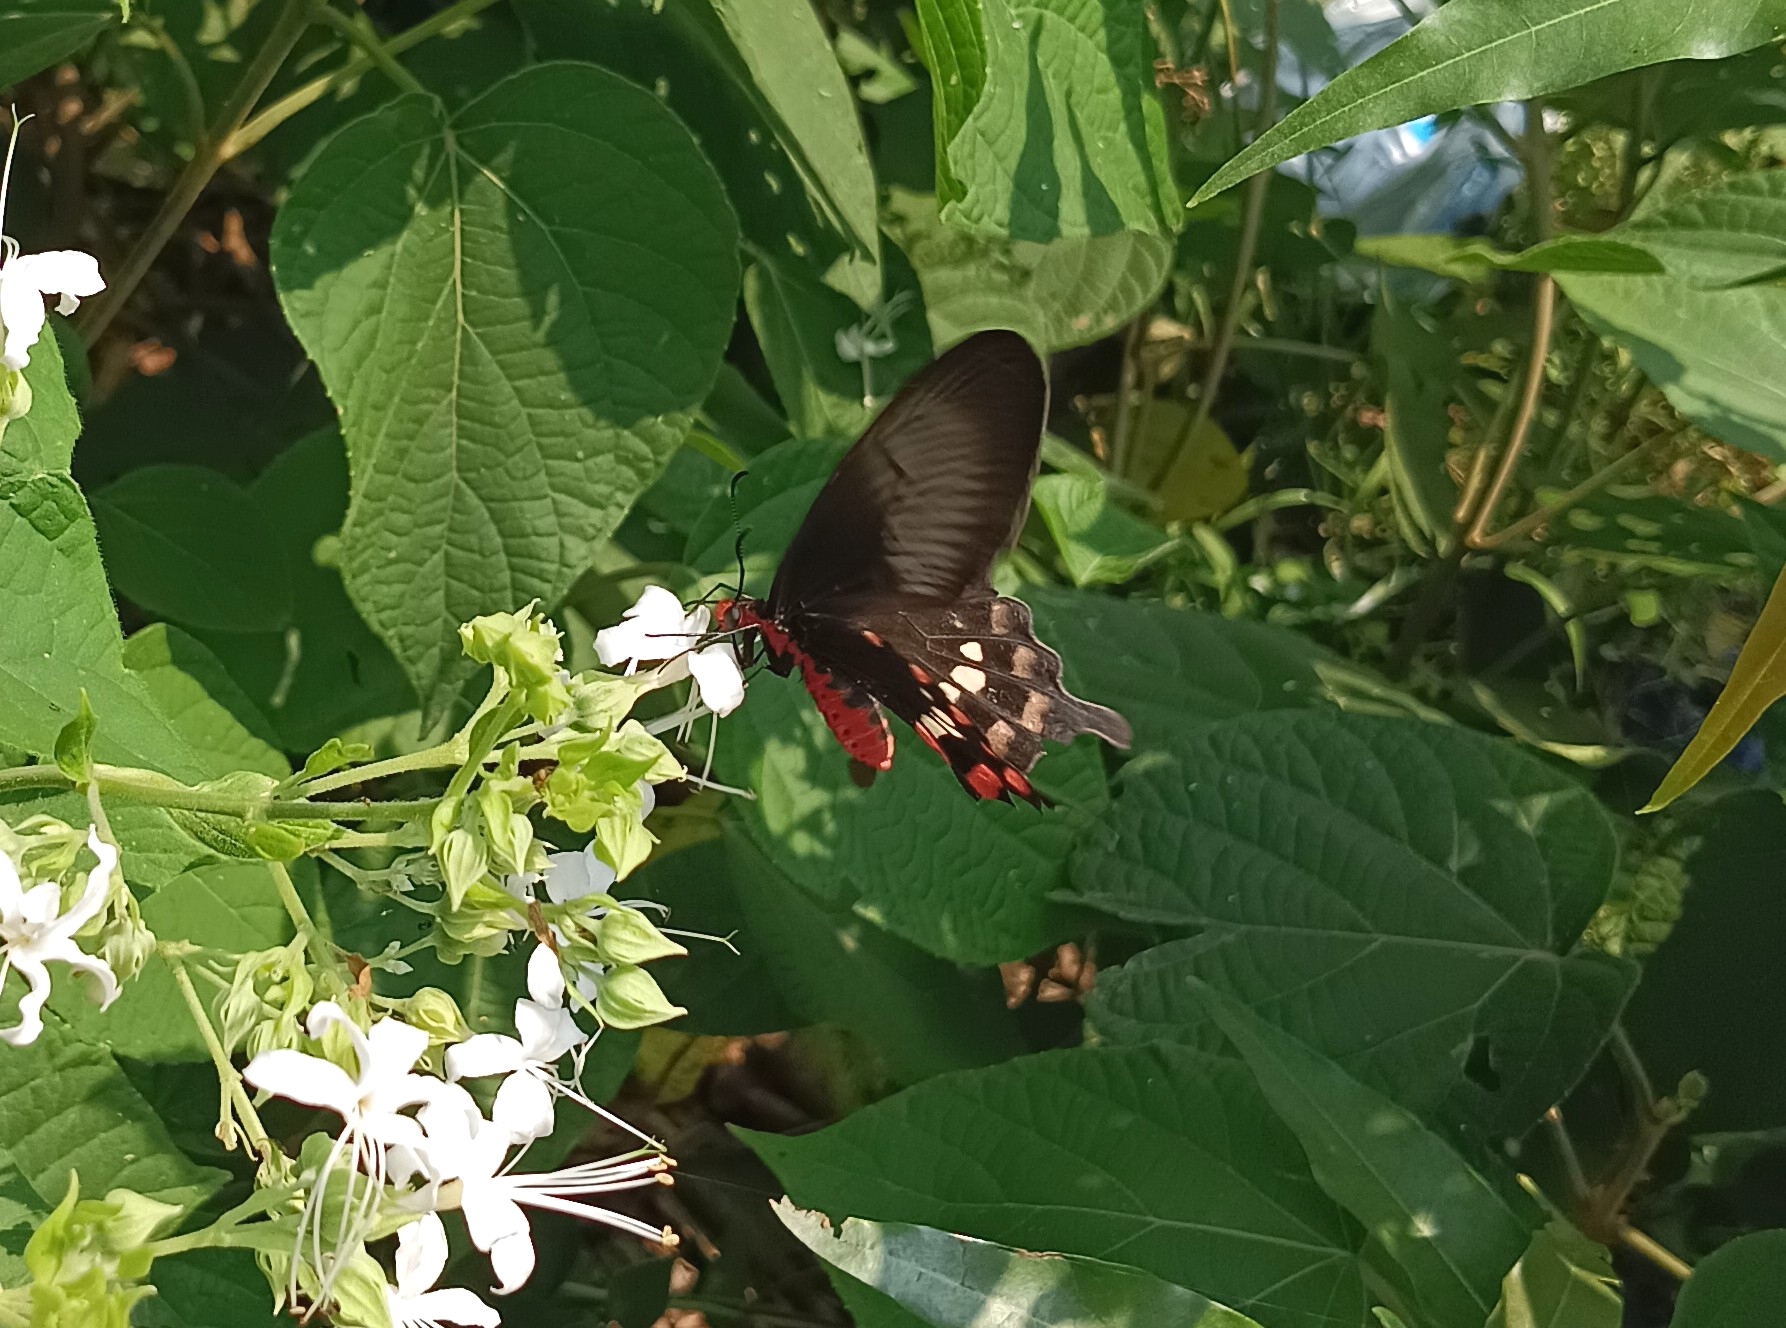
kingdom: Animalia
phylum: Arthropoda
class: Insecta
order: Lepidoptera
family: Papilionidae
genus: Pachliopta
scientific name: Pachliopta aristolochiae
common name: Common rose
